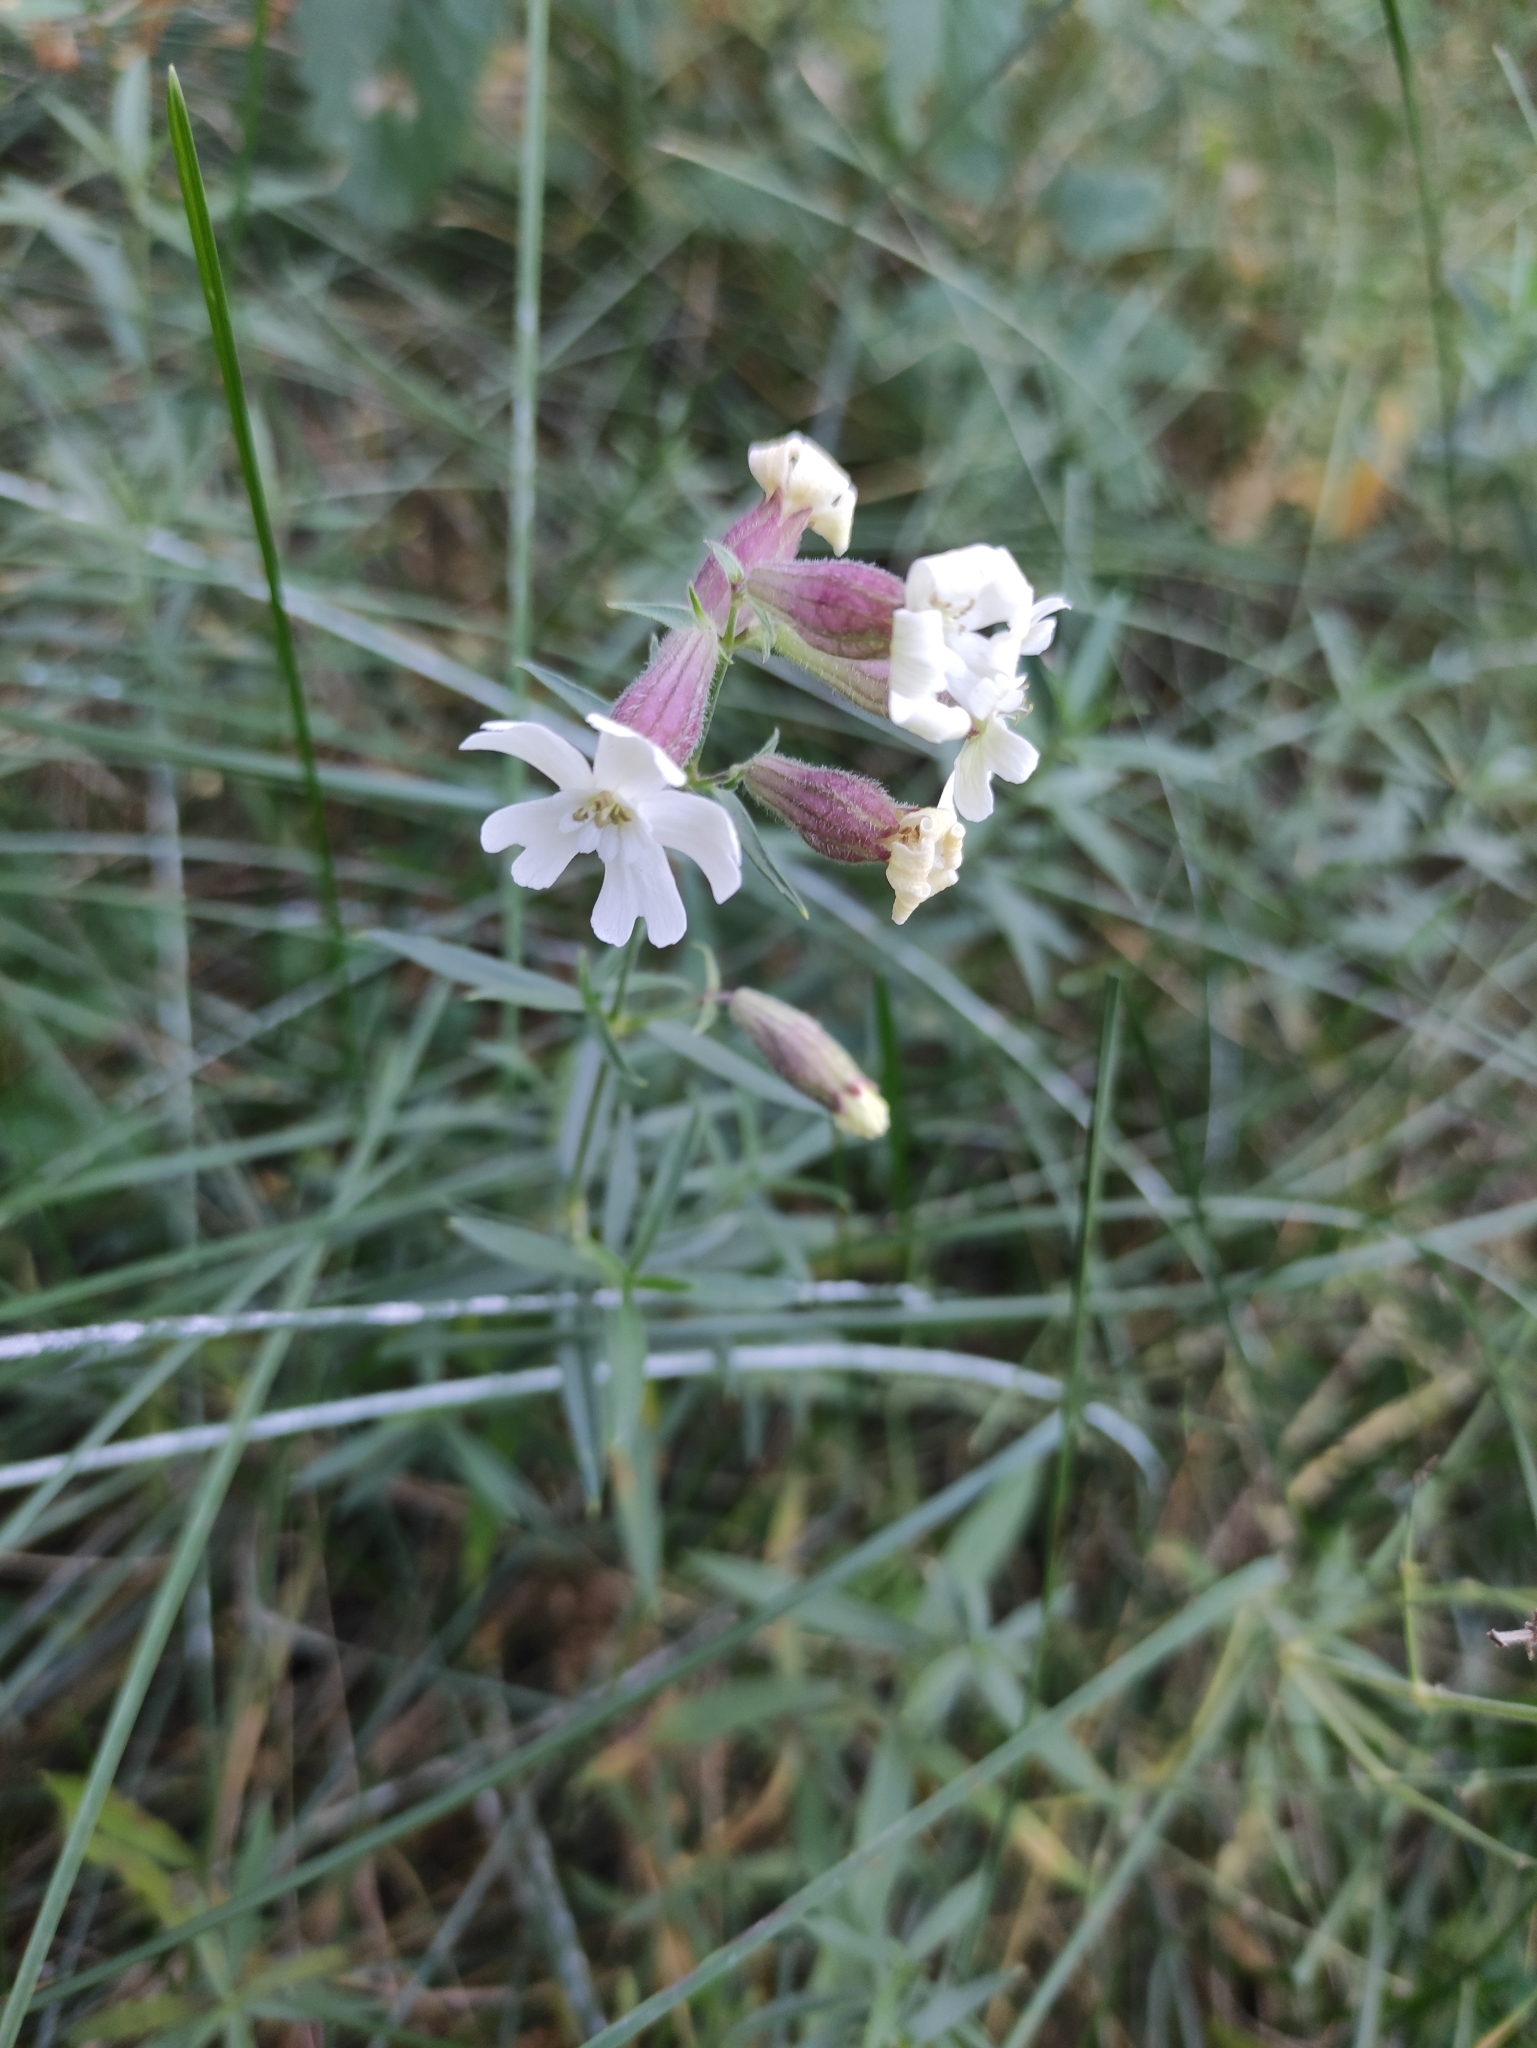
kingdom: Plantae
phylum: Tracheophyta
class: Magnoliopsida
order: Caryophyllales
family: Caryophyllaceae
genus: Silene
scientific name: Silene amoena
